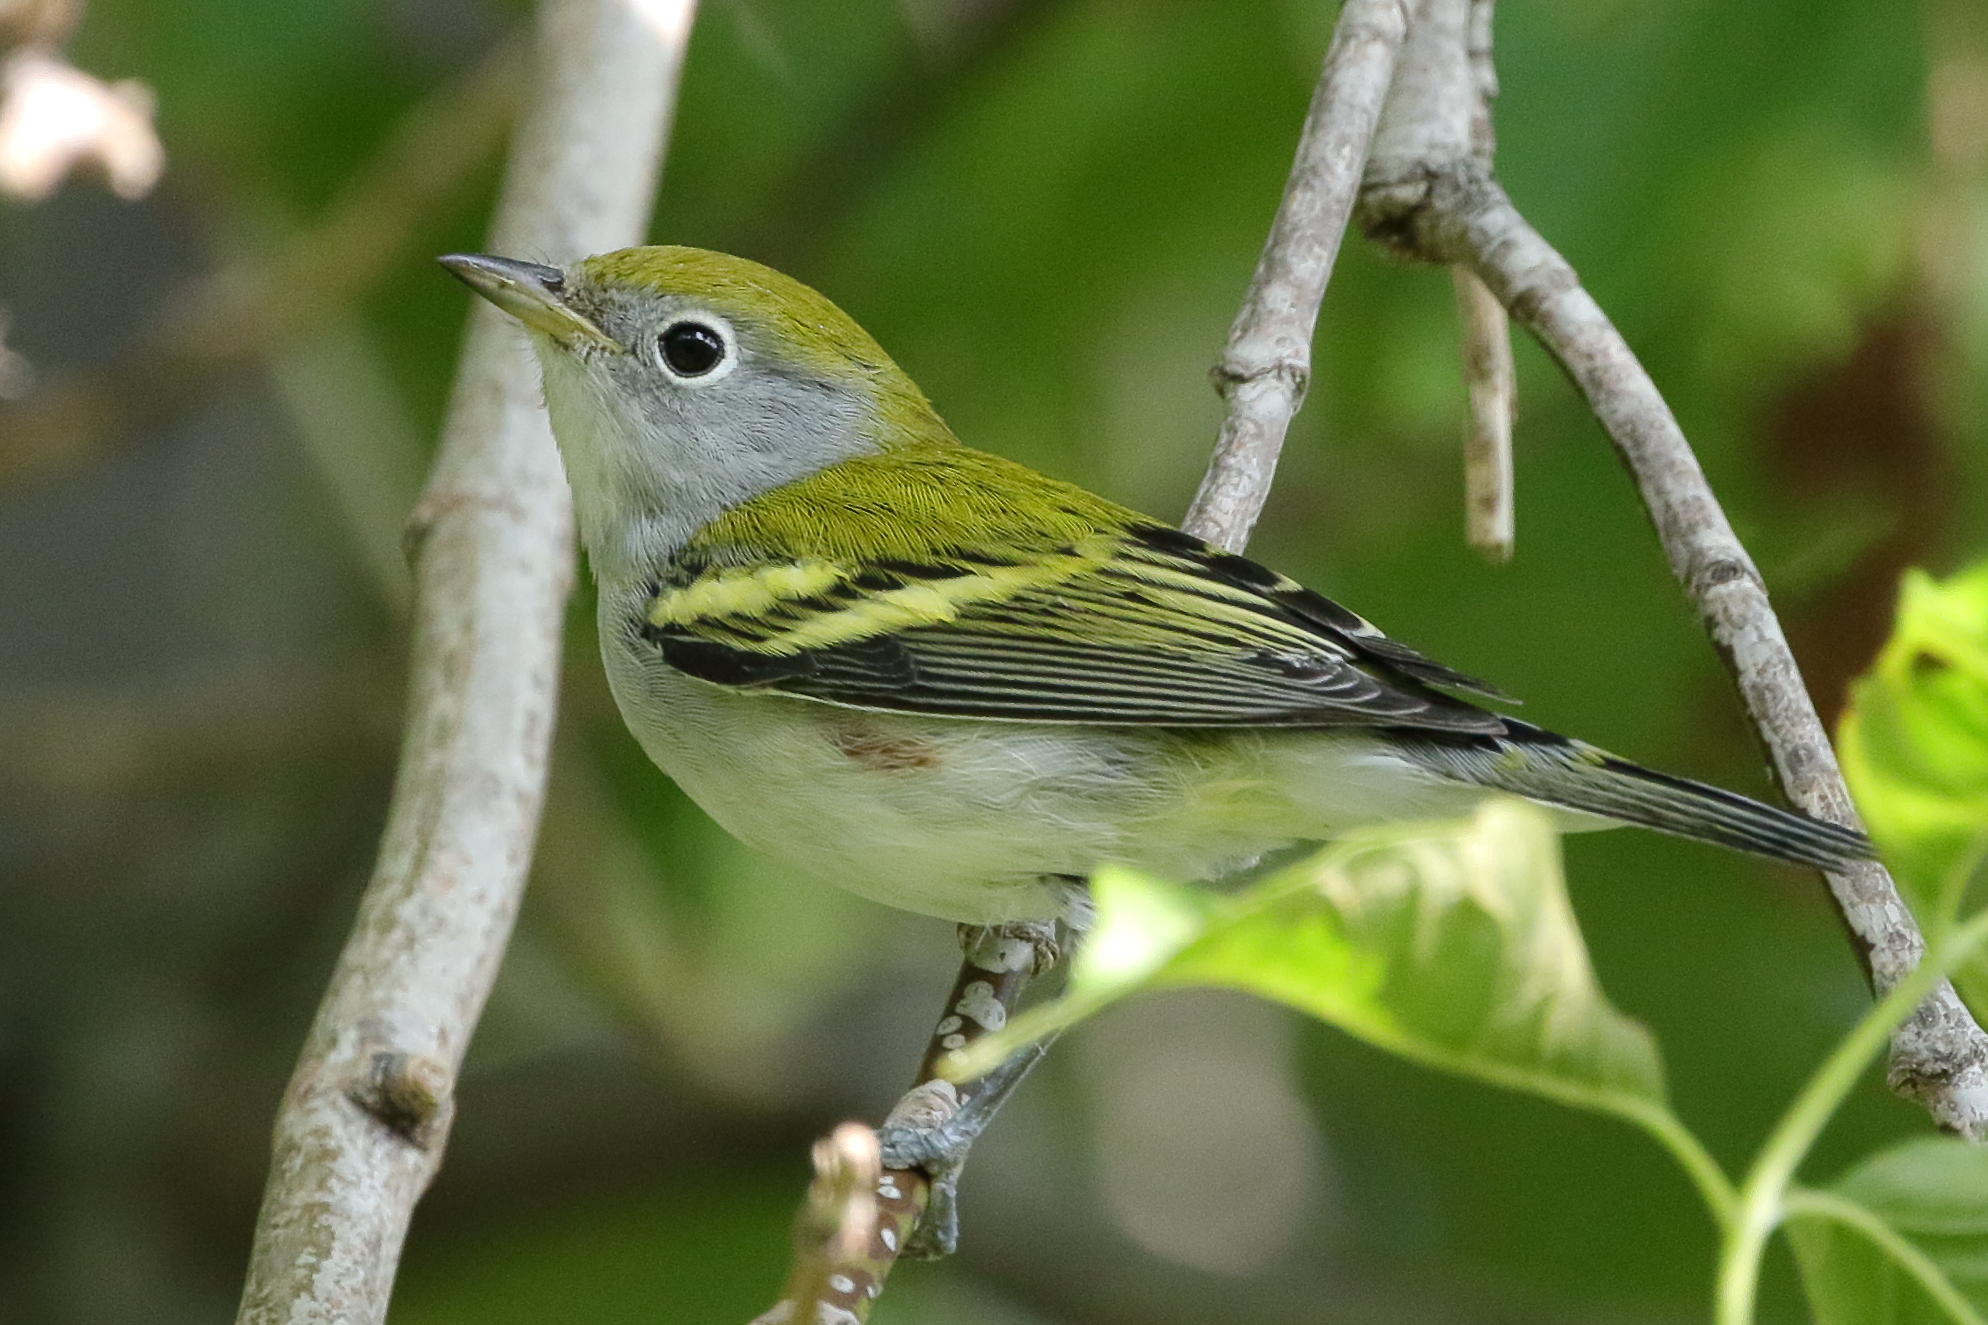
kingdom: Animalia
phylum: Chordata
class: Aves
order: Passeriformes
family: Parulidae
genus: Setophaga
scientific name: Setophaga pensylvanica
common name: Chestnut-sided warbler
